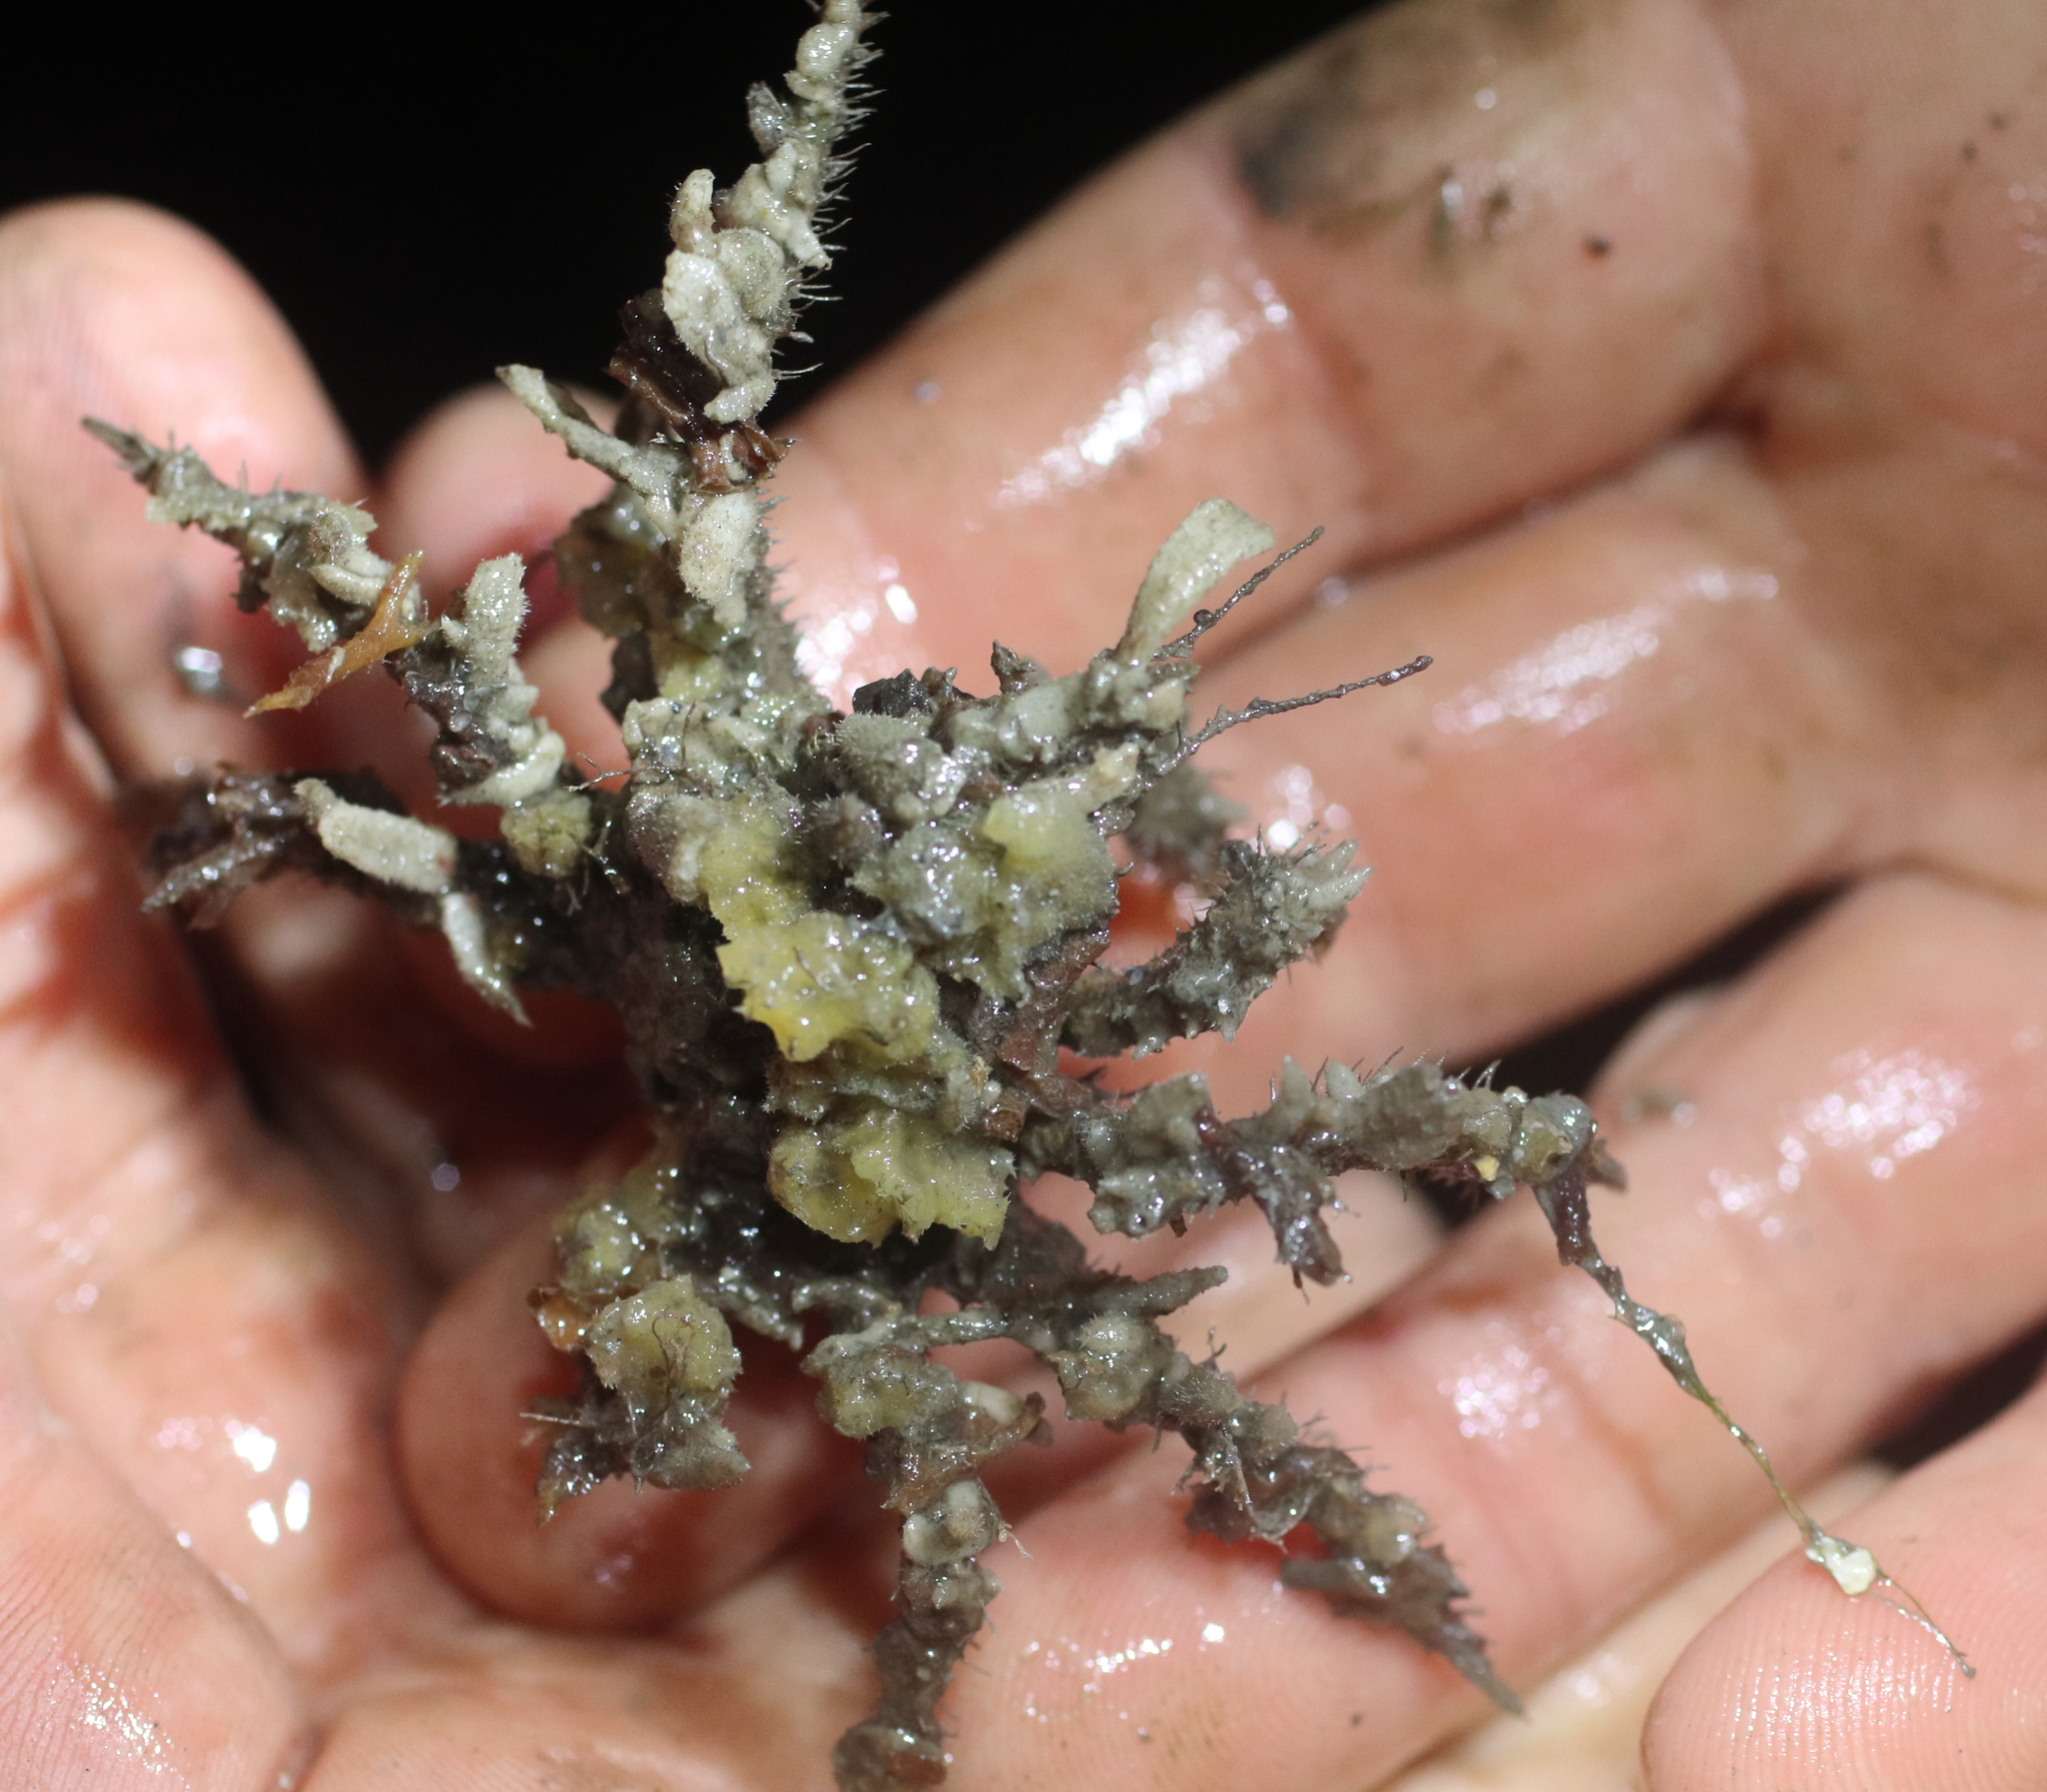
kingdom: Animalia
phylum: Arthropoda
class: Malacostraca
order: Decapoda
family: Oregoniidae
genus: Oregonia
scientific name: Oregonia gracilis
